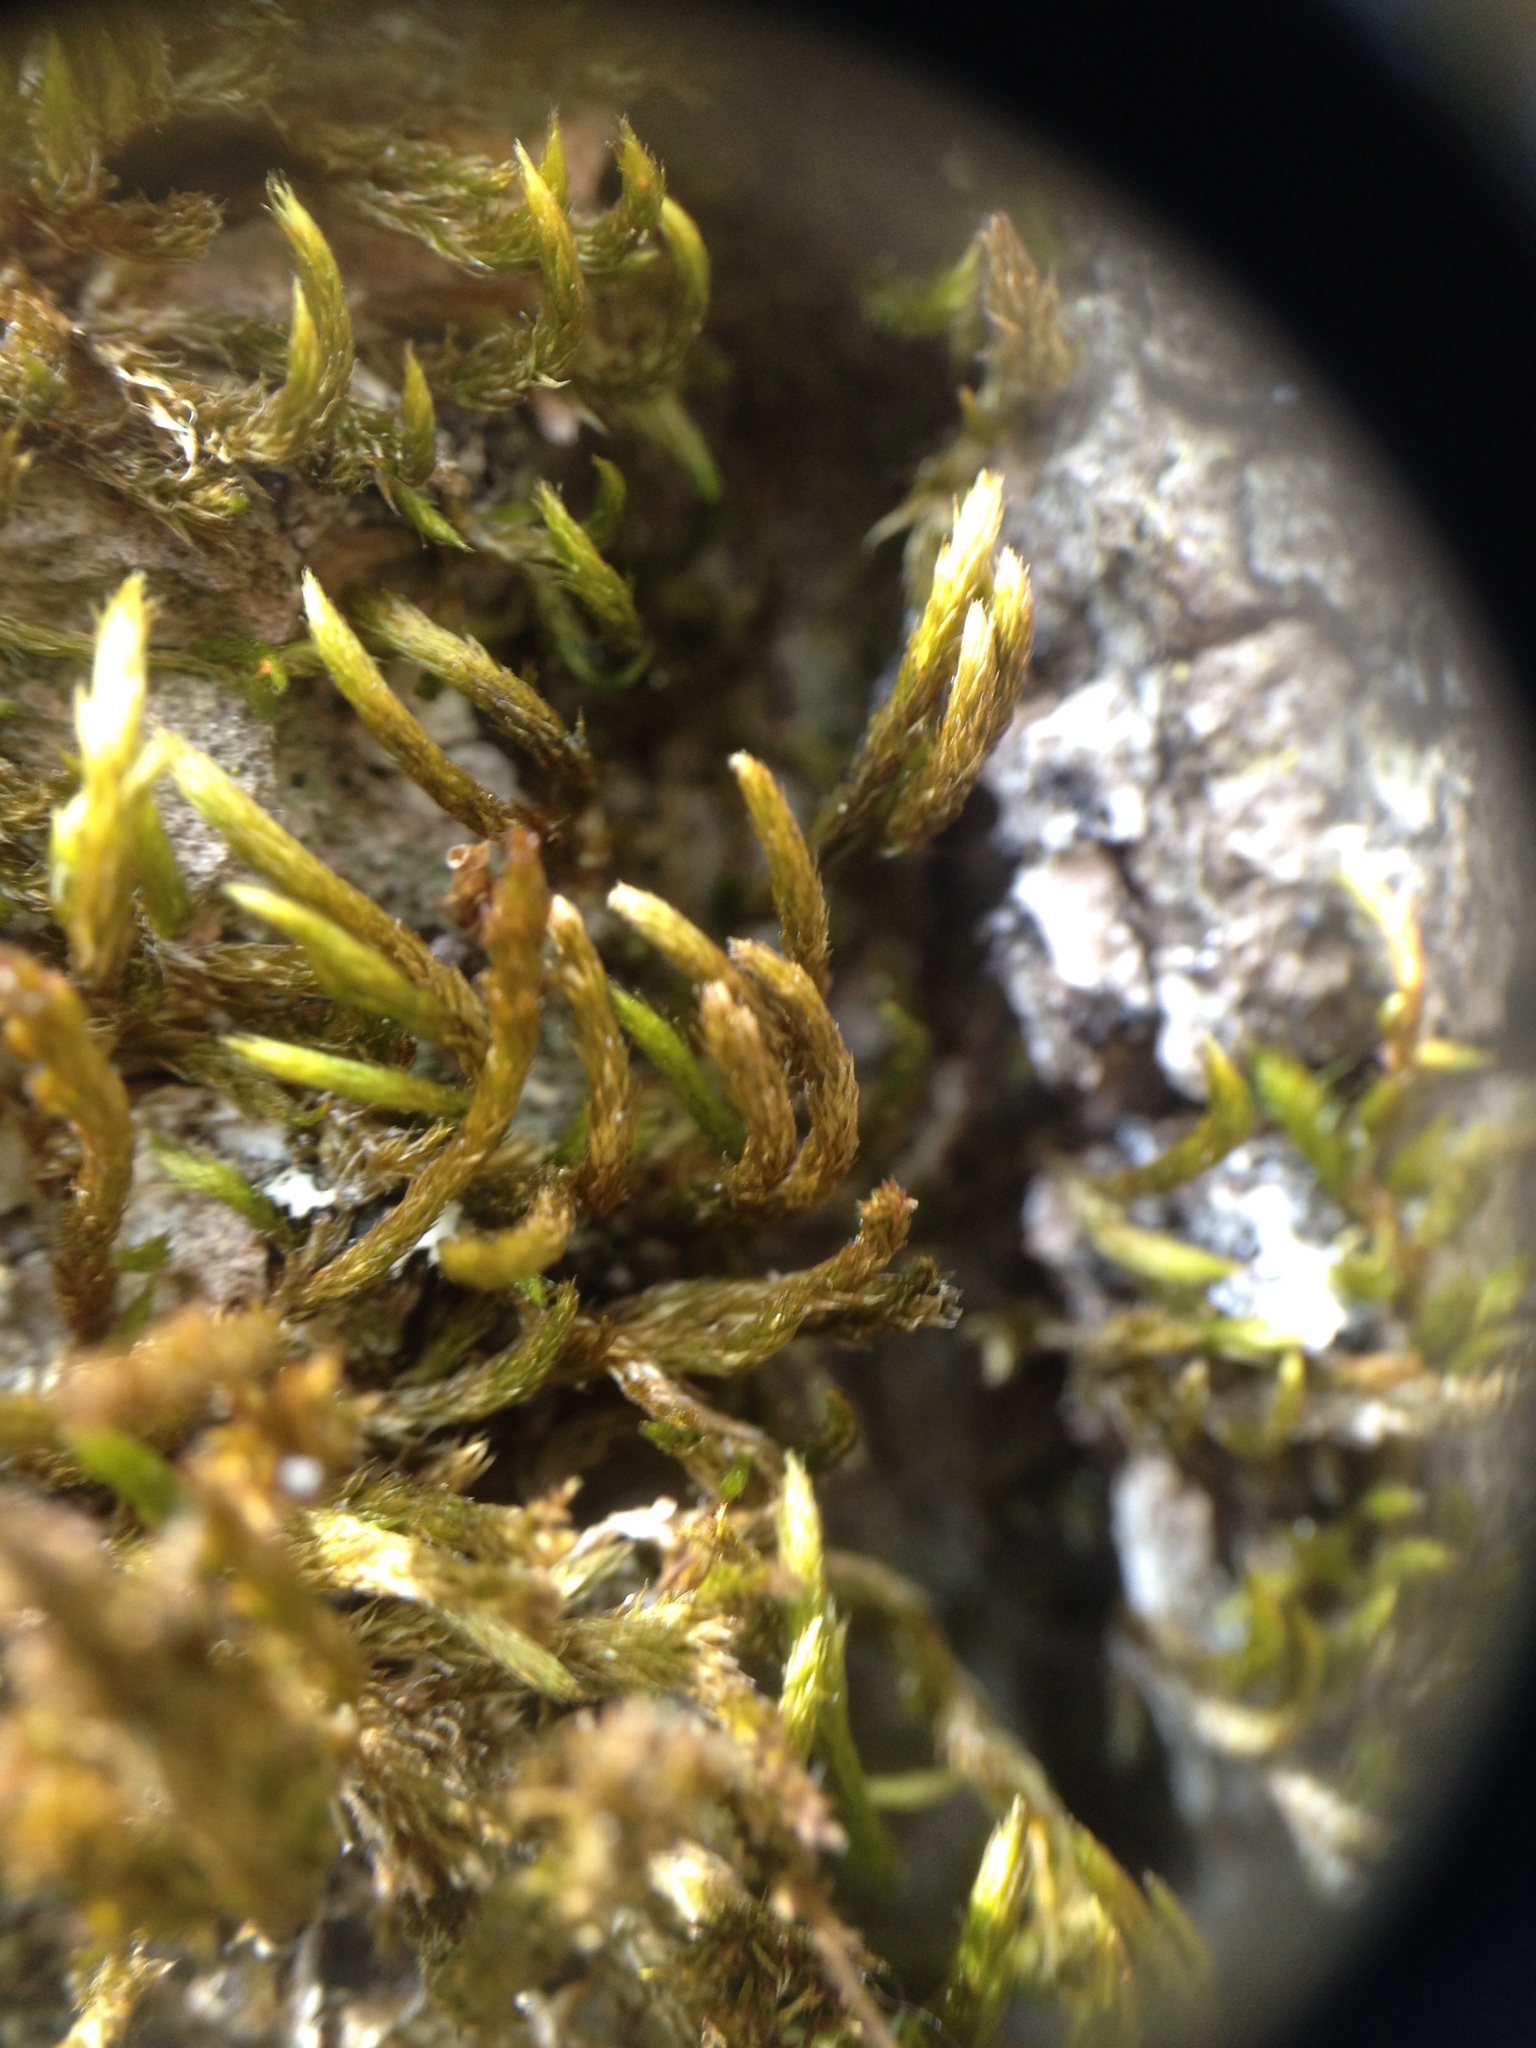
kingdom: Plantae
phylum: Bryophyta
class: Bryopsida
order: Hypnales
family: Leucodontaceae
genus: Leucodon
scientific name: Leucodon sciuroides
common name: Squirrel-tail moss
